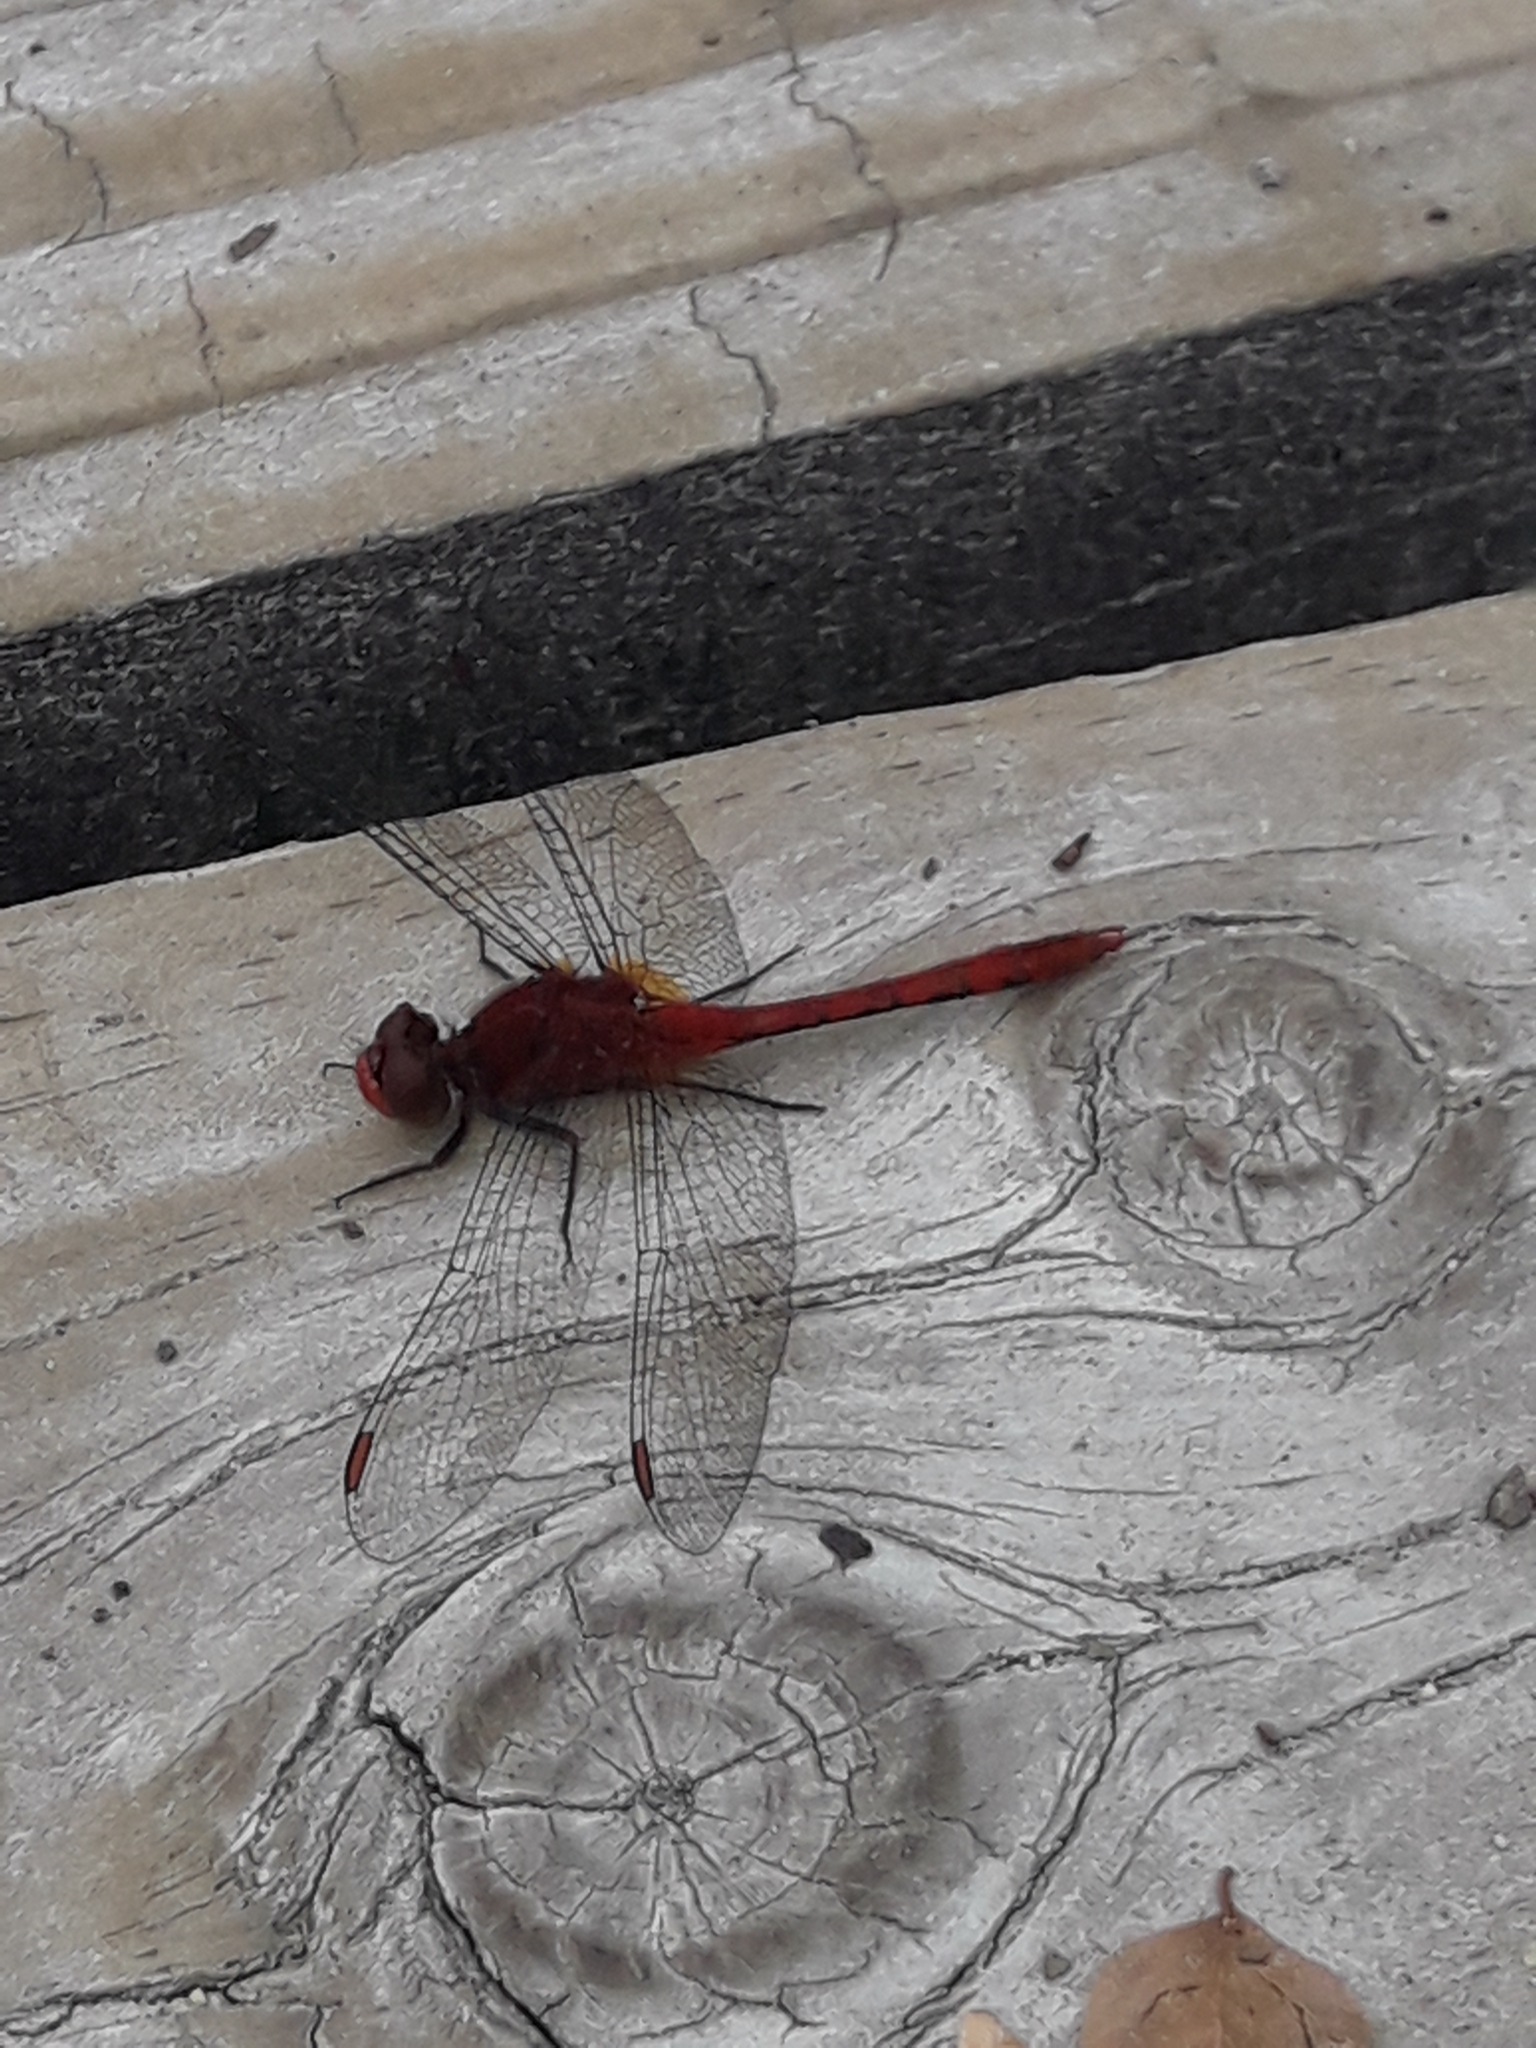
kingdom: Animalia
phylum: Arthropoda
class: Insecta
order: Odonata
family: Libellulidae
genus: Diplacodes
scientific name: Diplacodes bipunctata
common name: Red percher dragonfly
